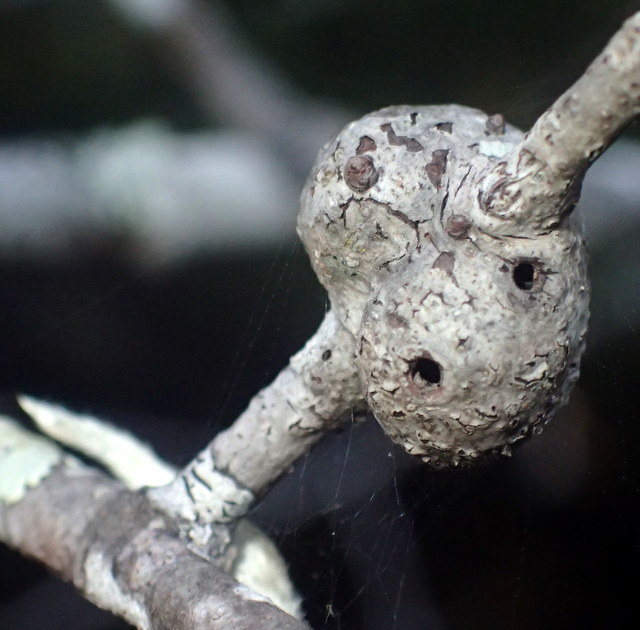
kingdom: Animalia
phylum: Arthropoda
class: Insecta
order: Hymenoptera
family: Cynipidae
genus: Callirhytis
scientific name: Callirhytis
